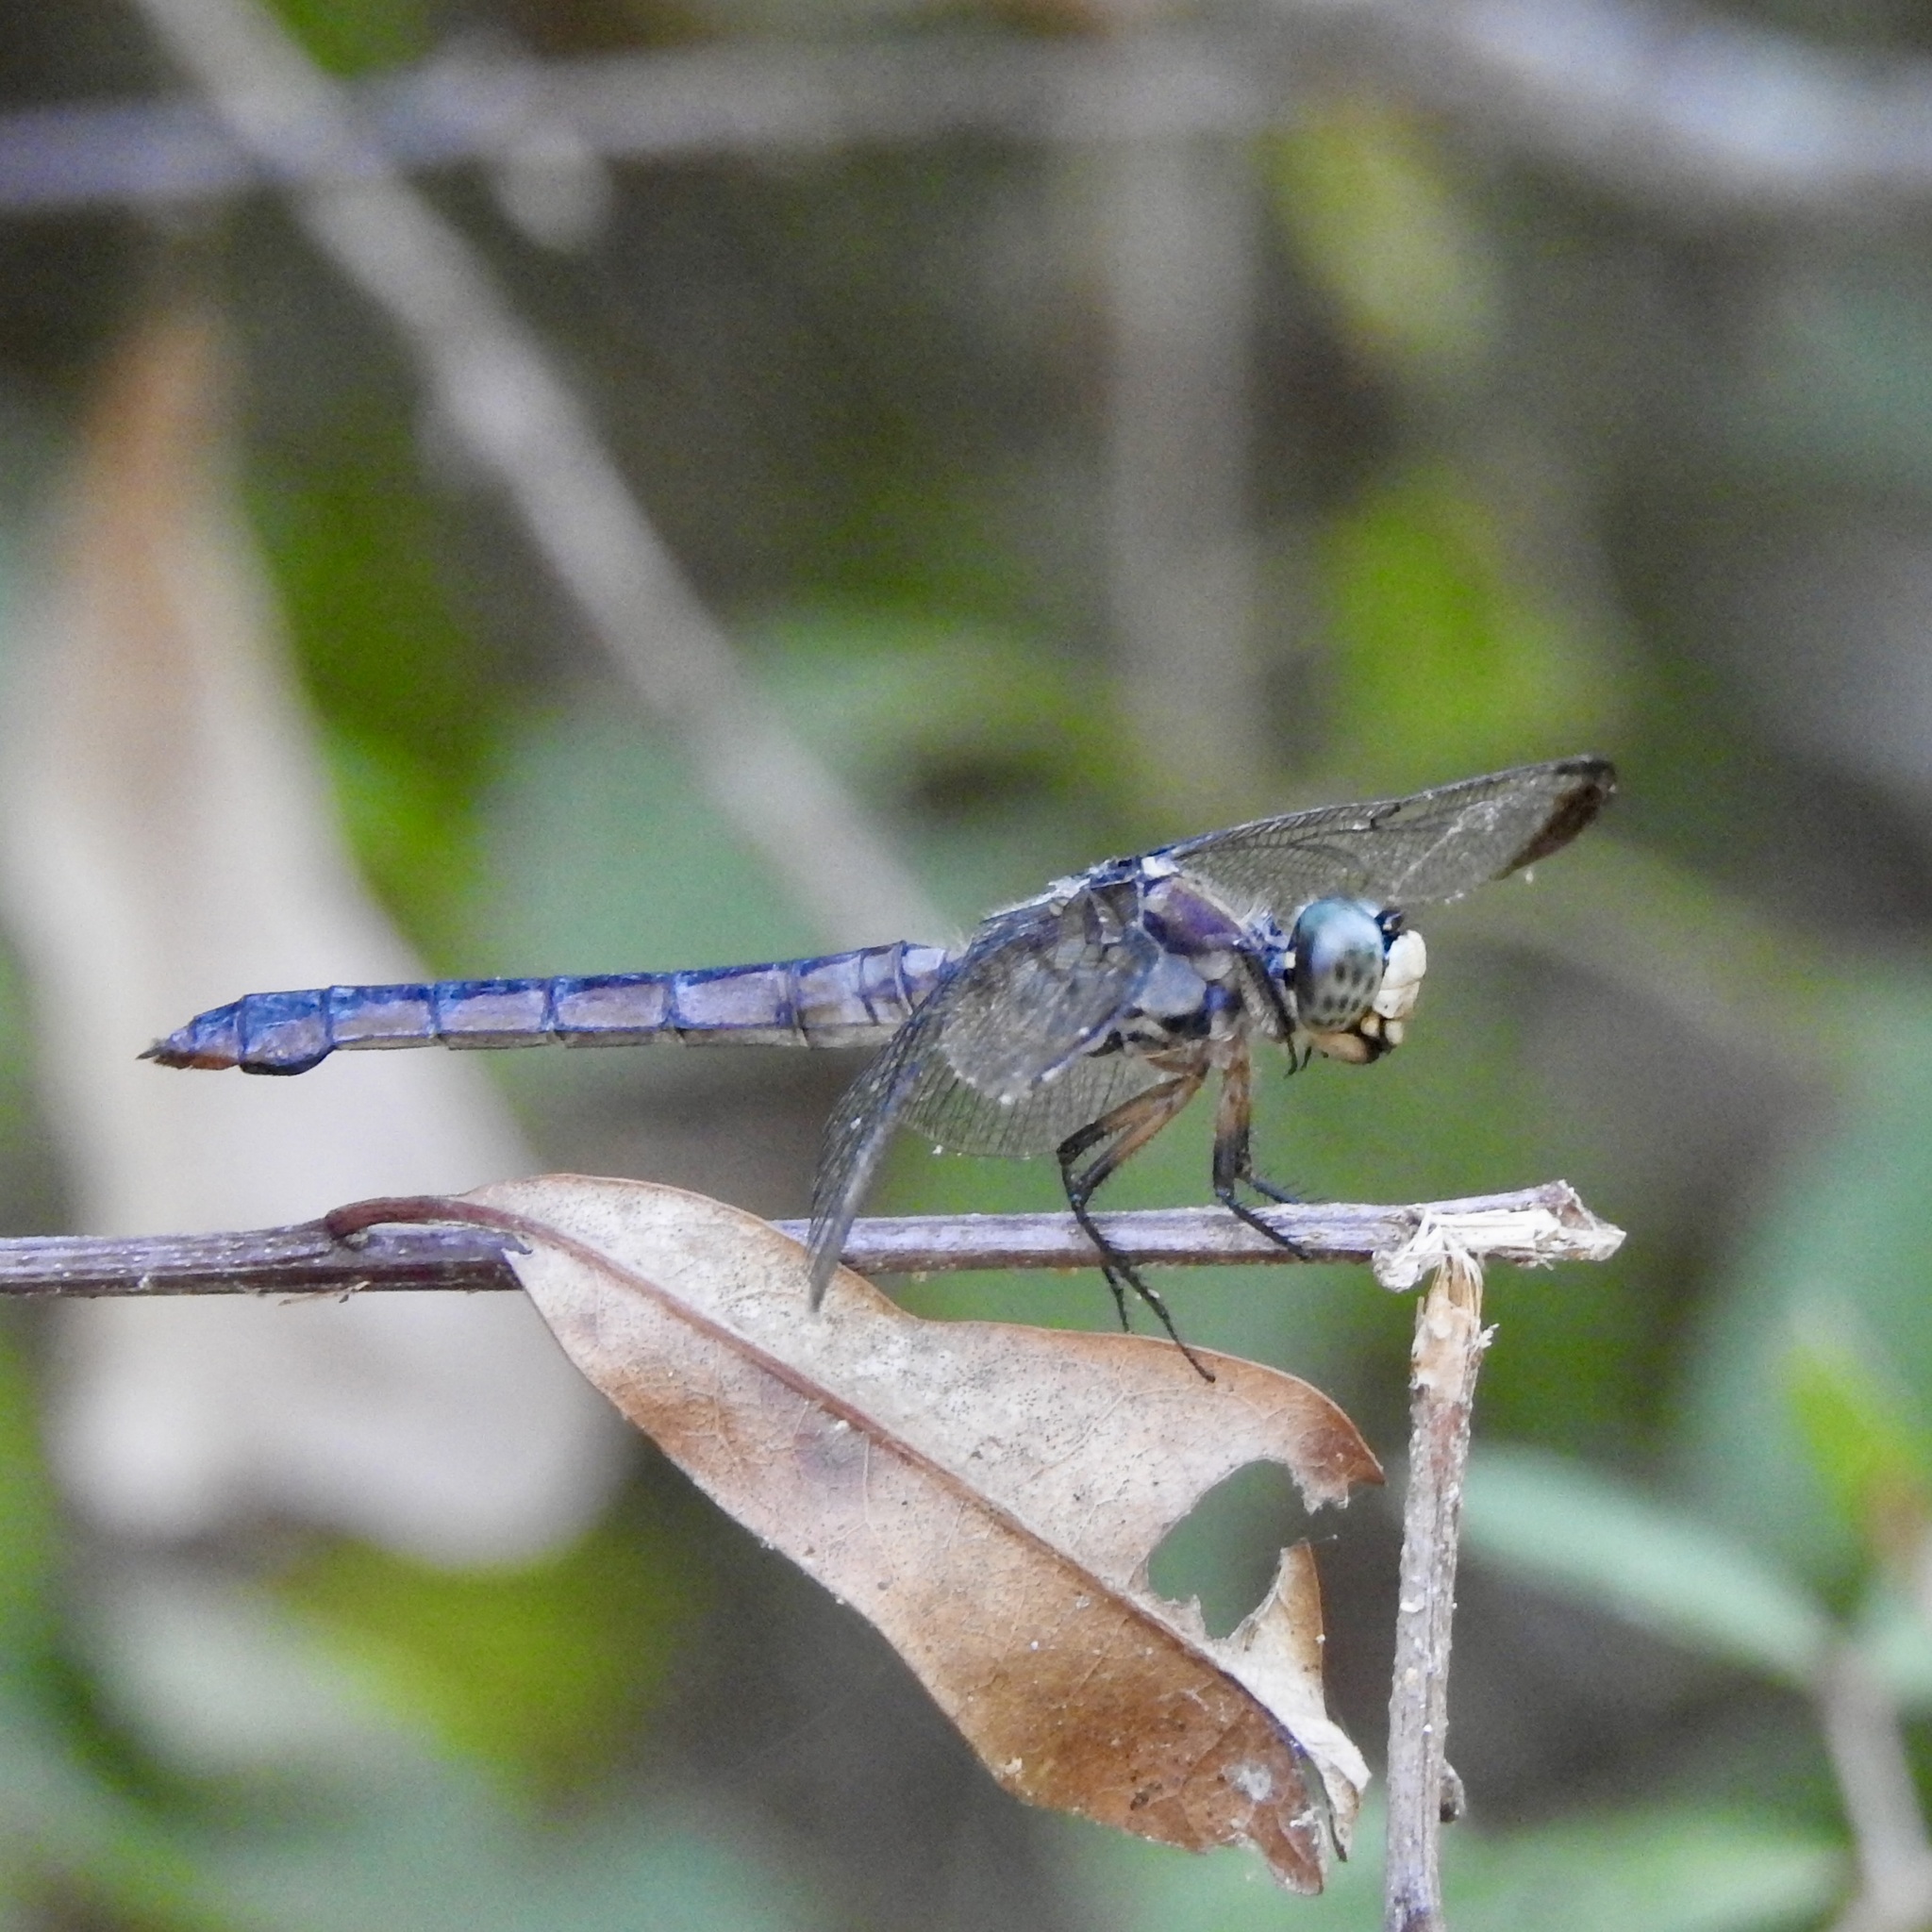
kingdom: Animalia
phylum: Arthropoda
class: Insecta
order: Odonata
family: Libellulidae
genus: Libellula
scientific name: Libellula vibrans
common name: Great blue skimmer
